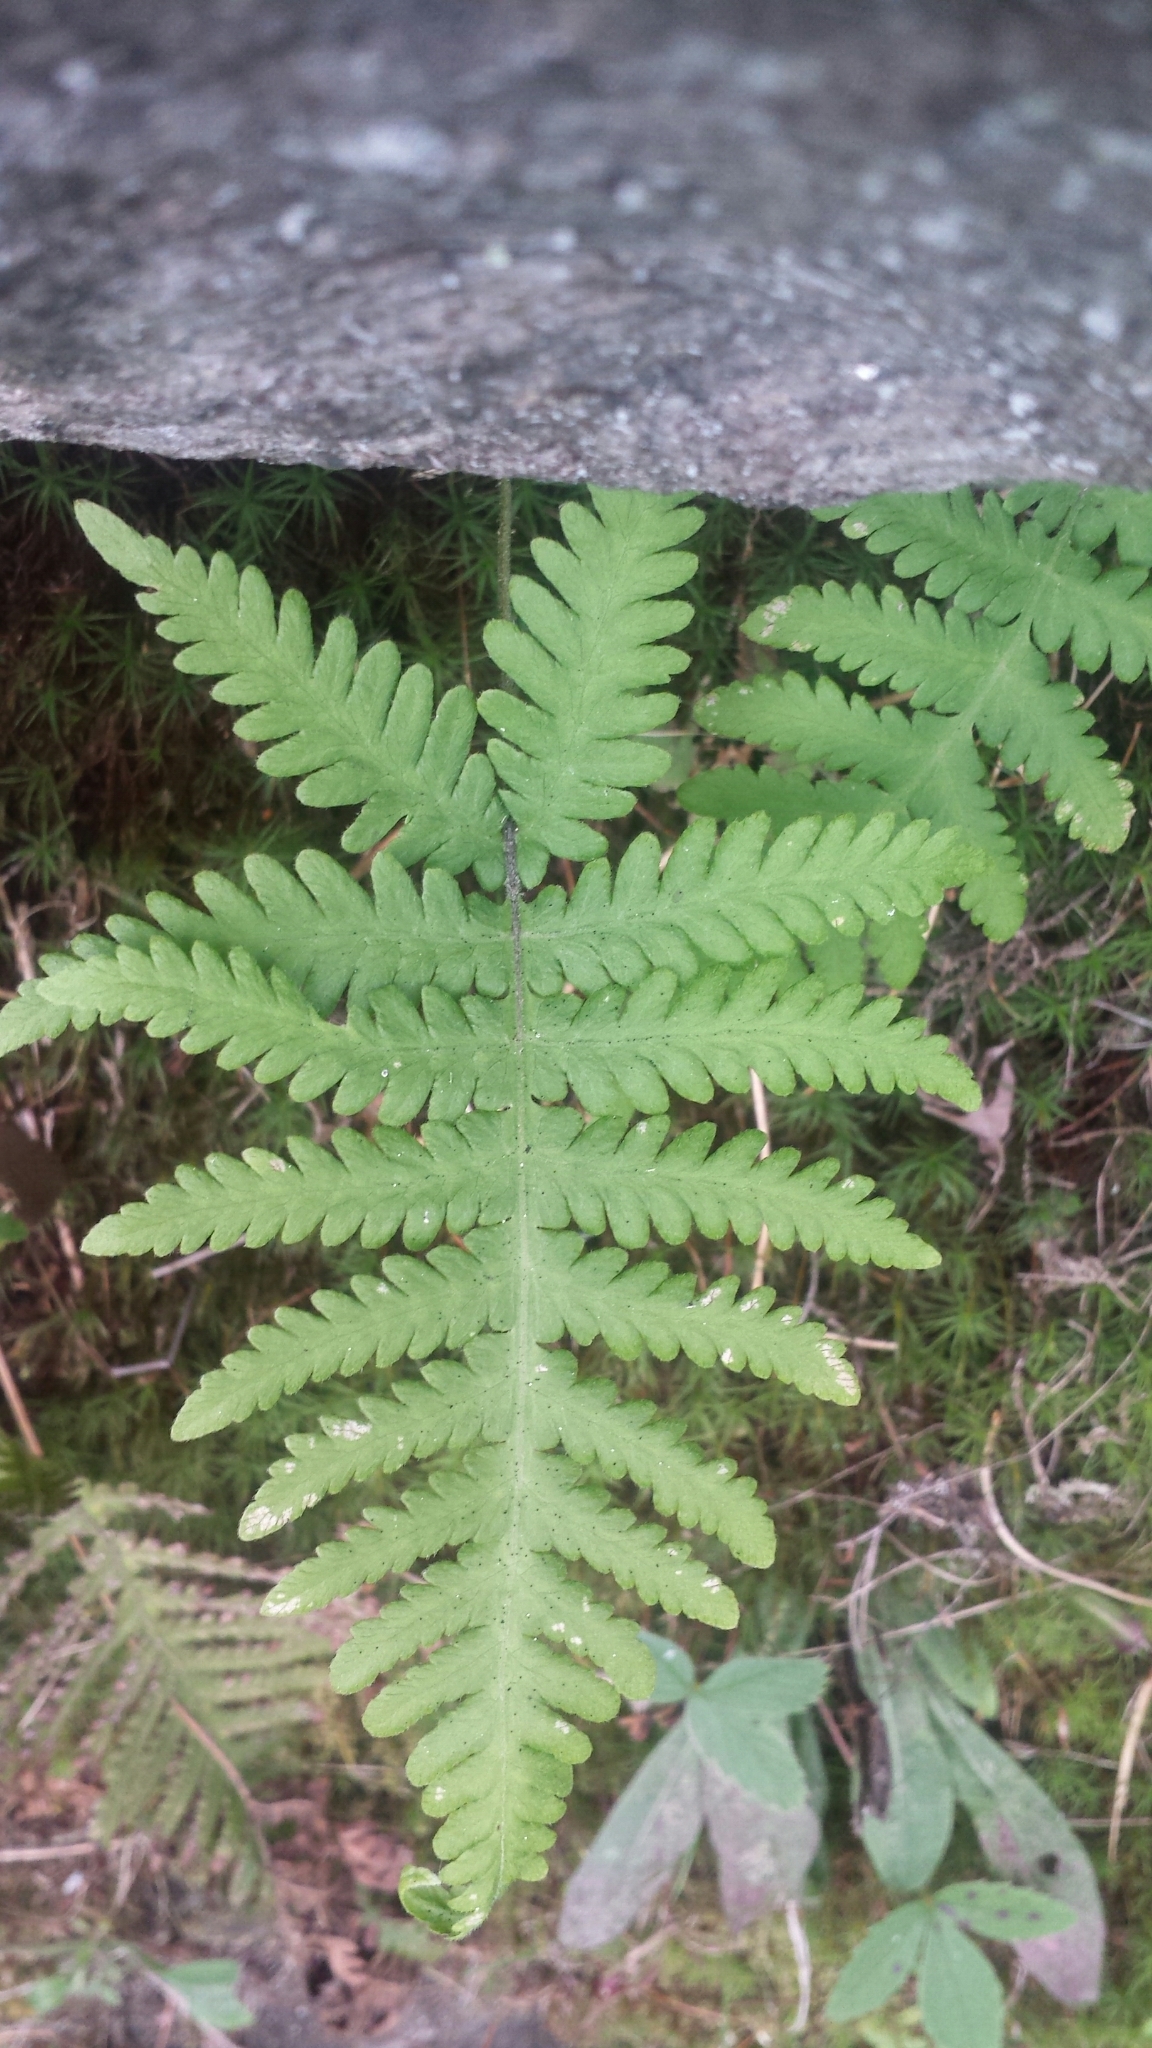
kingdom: Plantae
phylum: Tracheophyta
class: Polypodiopsida
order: Polypodiales
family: Thelypteridaceae
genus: Phegopteris
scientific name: Phegopteris connectilis
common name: Beech fern
